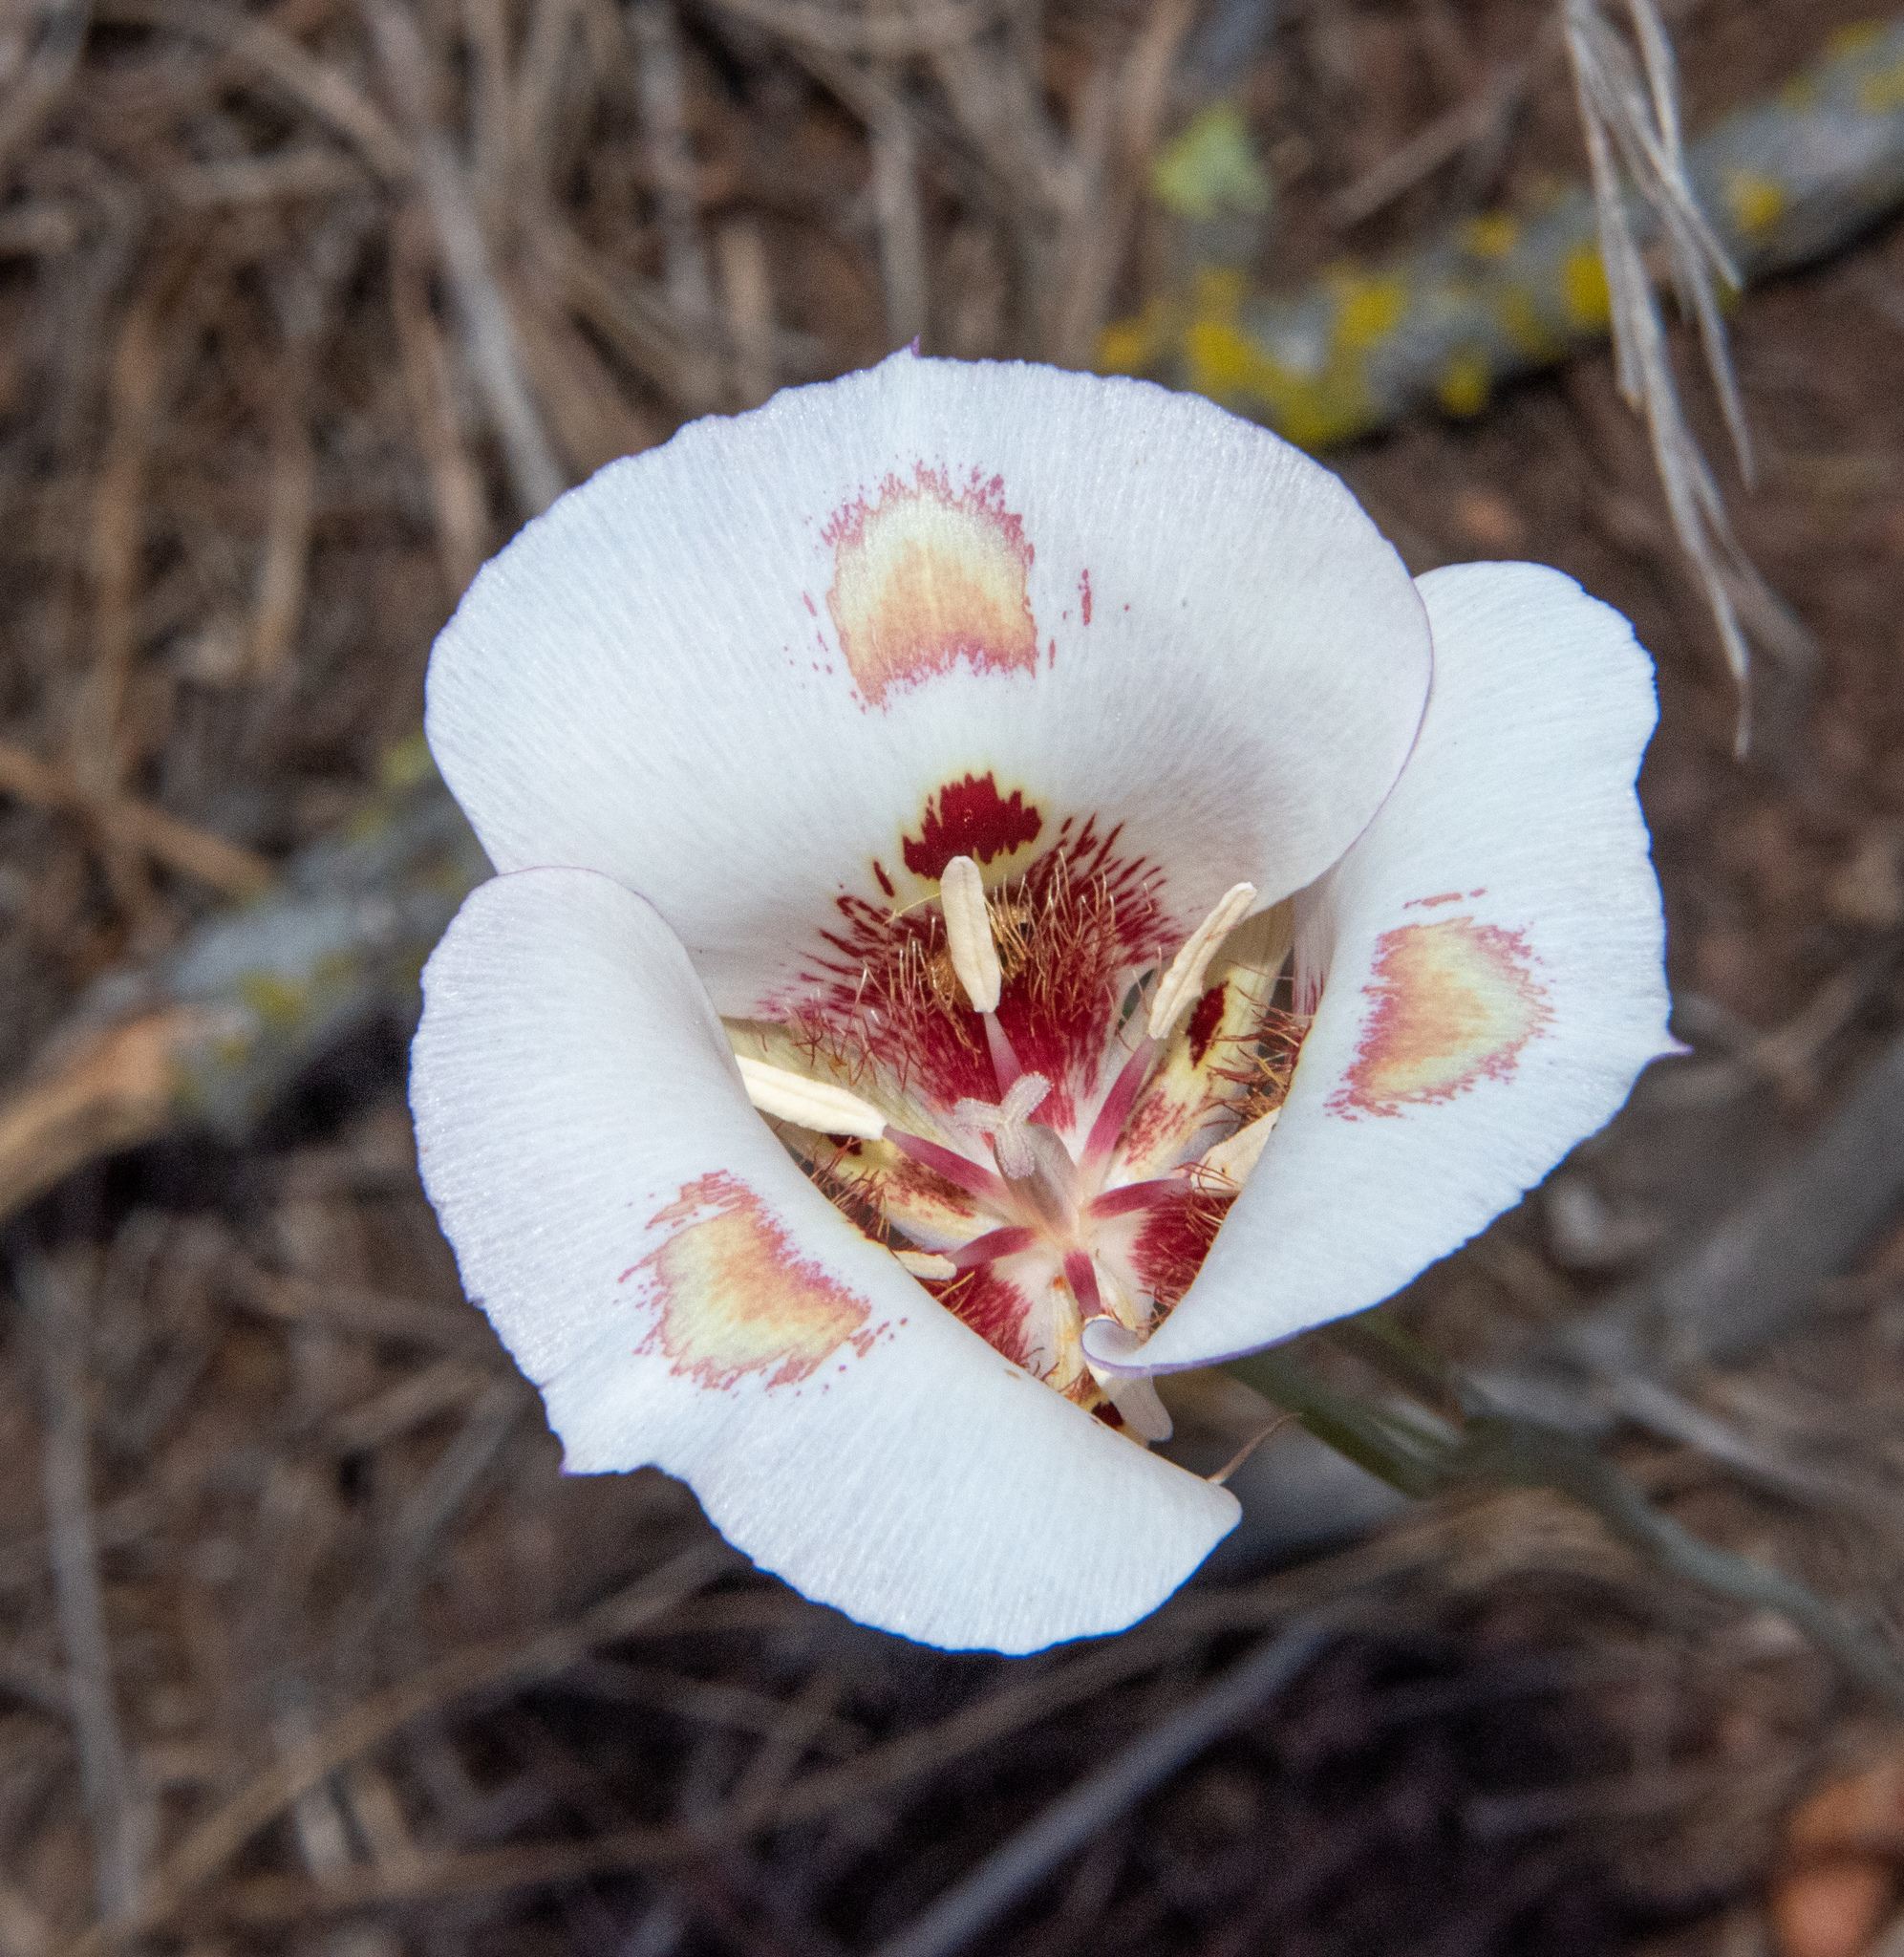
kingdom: Plantae
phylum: Tracheophyta
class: Liliopsida
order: Liliales
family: Liliaceae
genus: Calochortus
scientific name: Calochortus venustus
